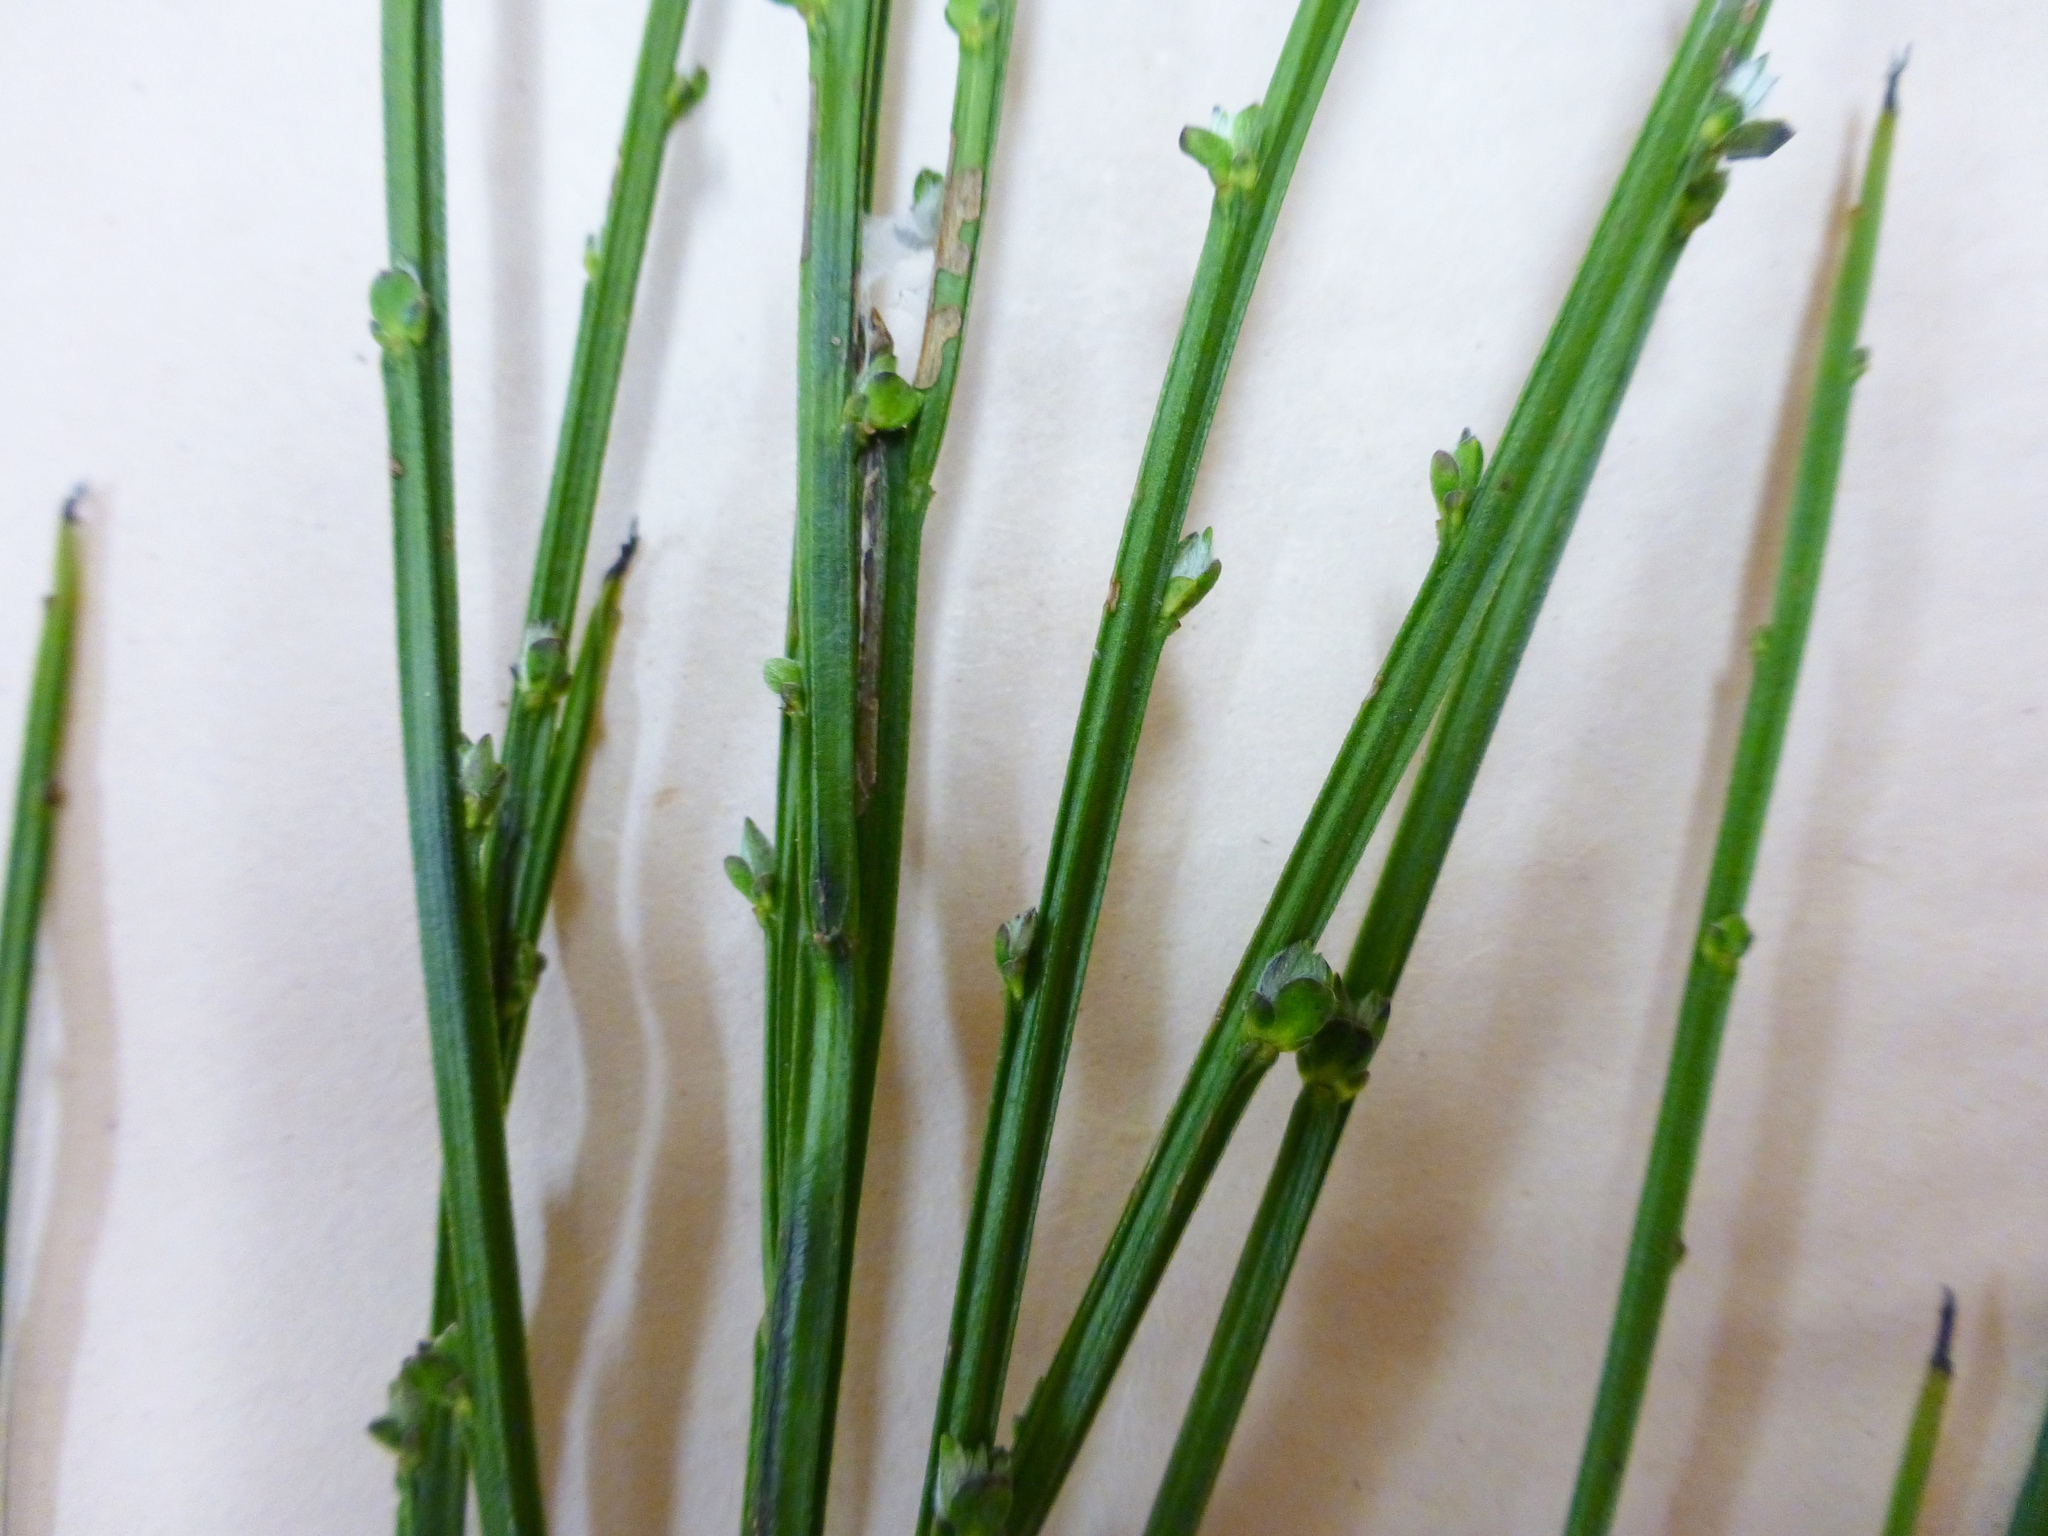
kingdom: Plantae
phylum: Tracheophyta
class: Magnoliopsida
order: Fabales
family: Fabaceae
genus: Cytisus
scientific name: Cytisus scoparius
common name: Scotch broom
